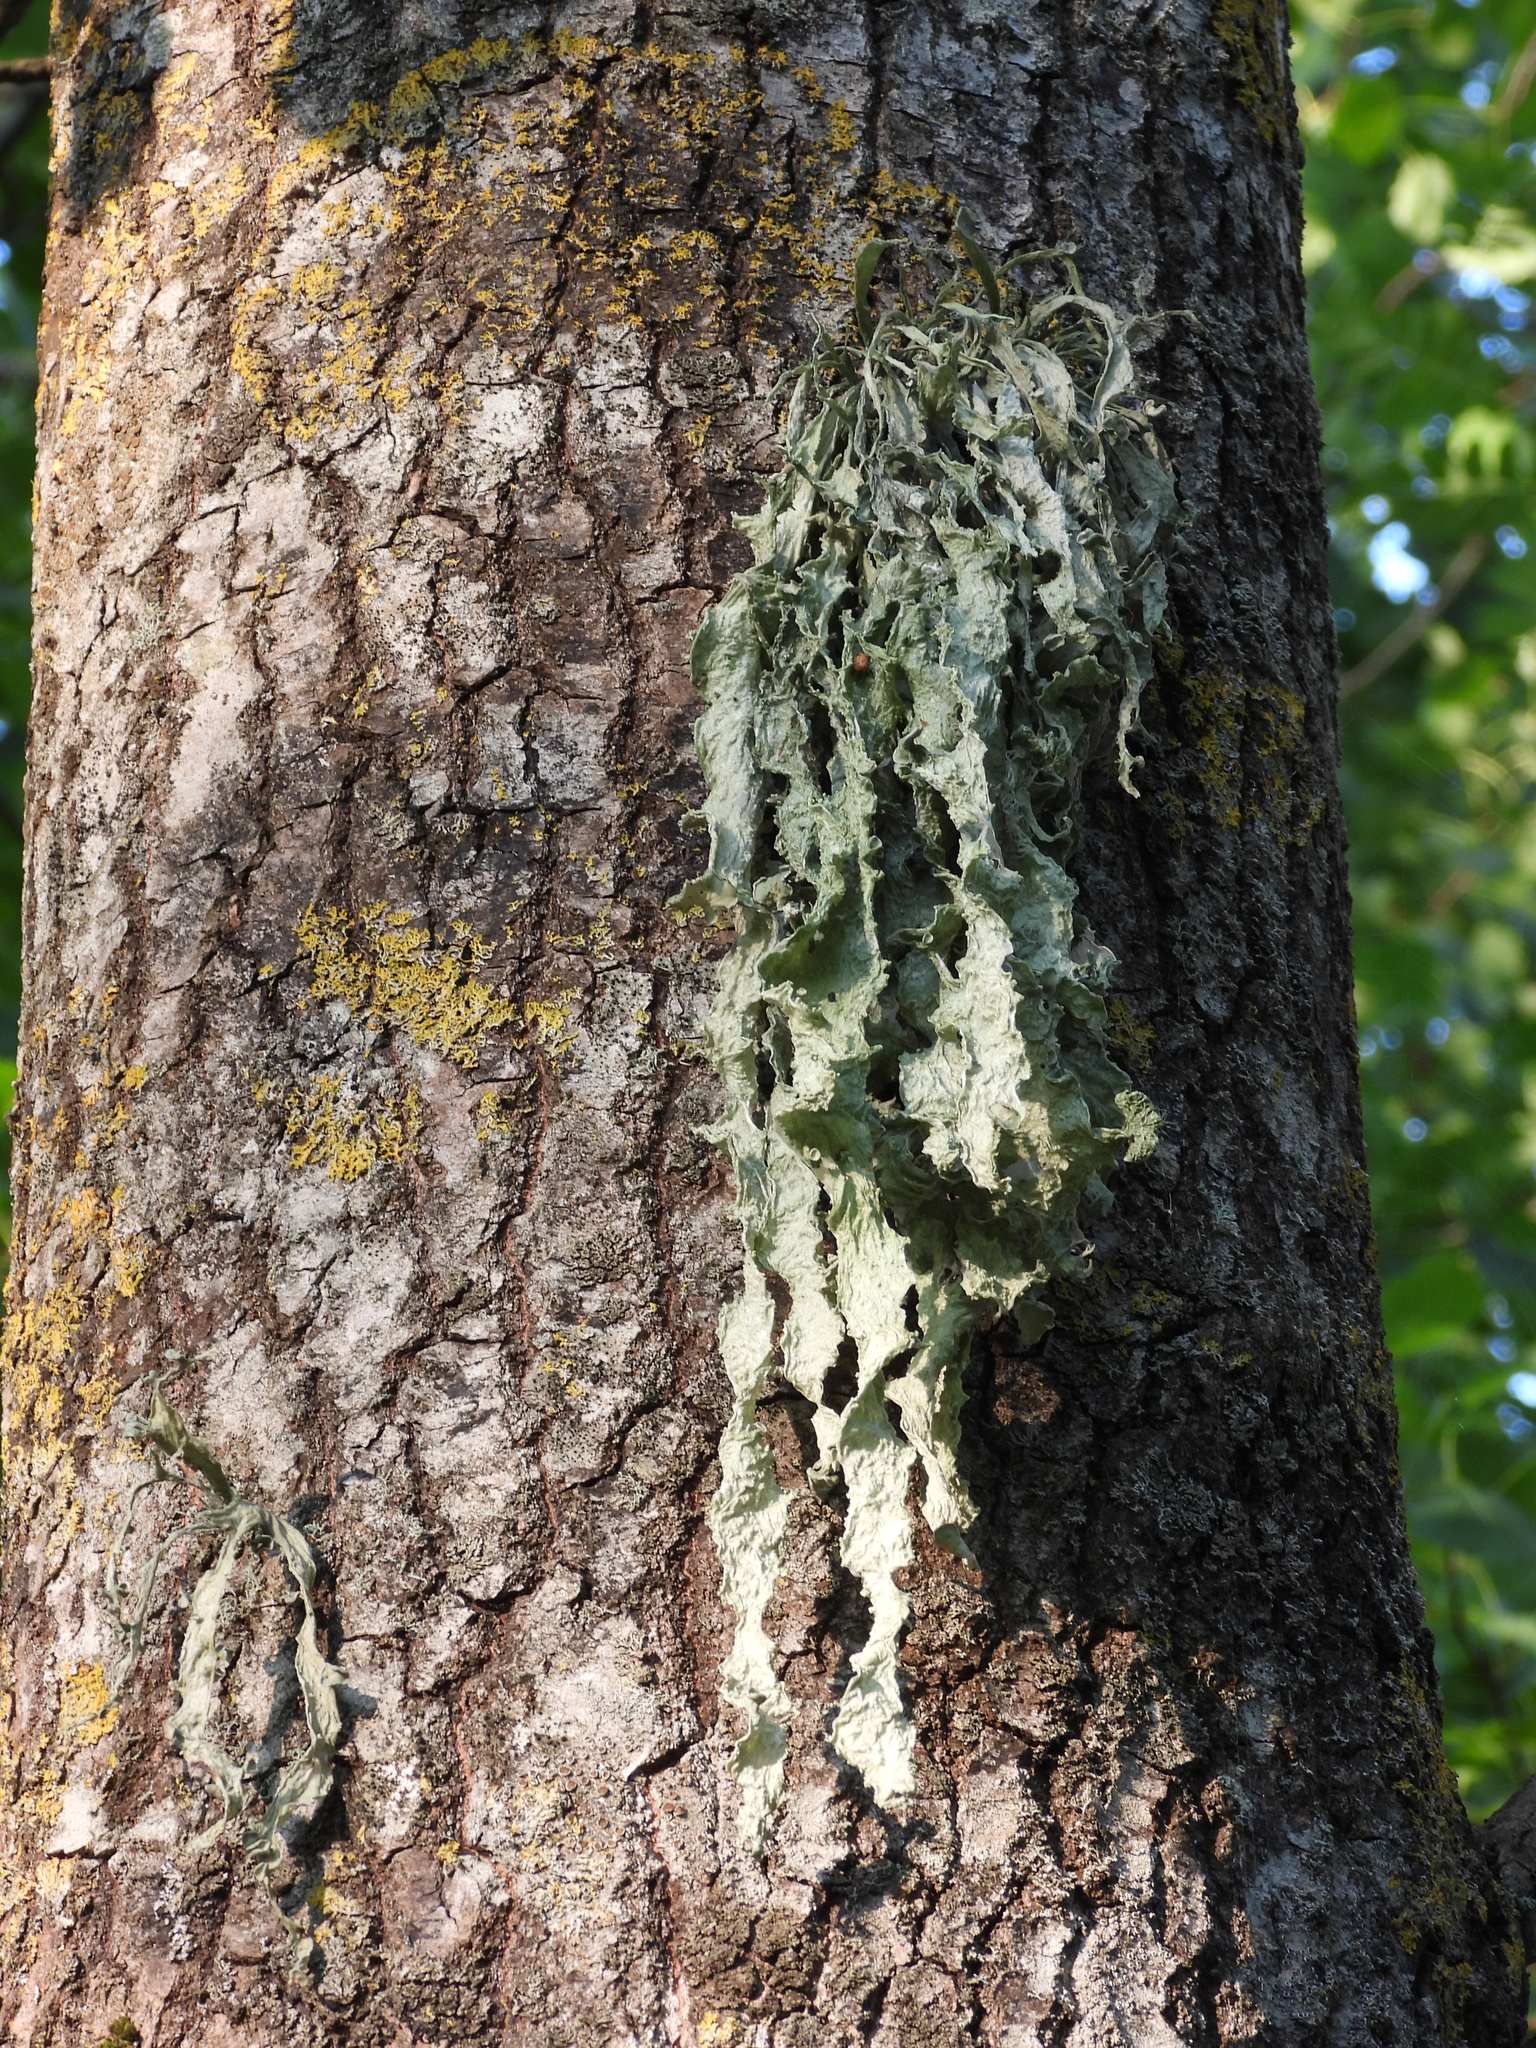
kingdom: Fungi
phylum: Ascomycota
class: Lecanoromycetes
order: Lecanorales
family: Ramalinaceae
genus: Ramalina
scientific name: Ramalina fraxinea
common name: Cartilage lichen
